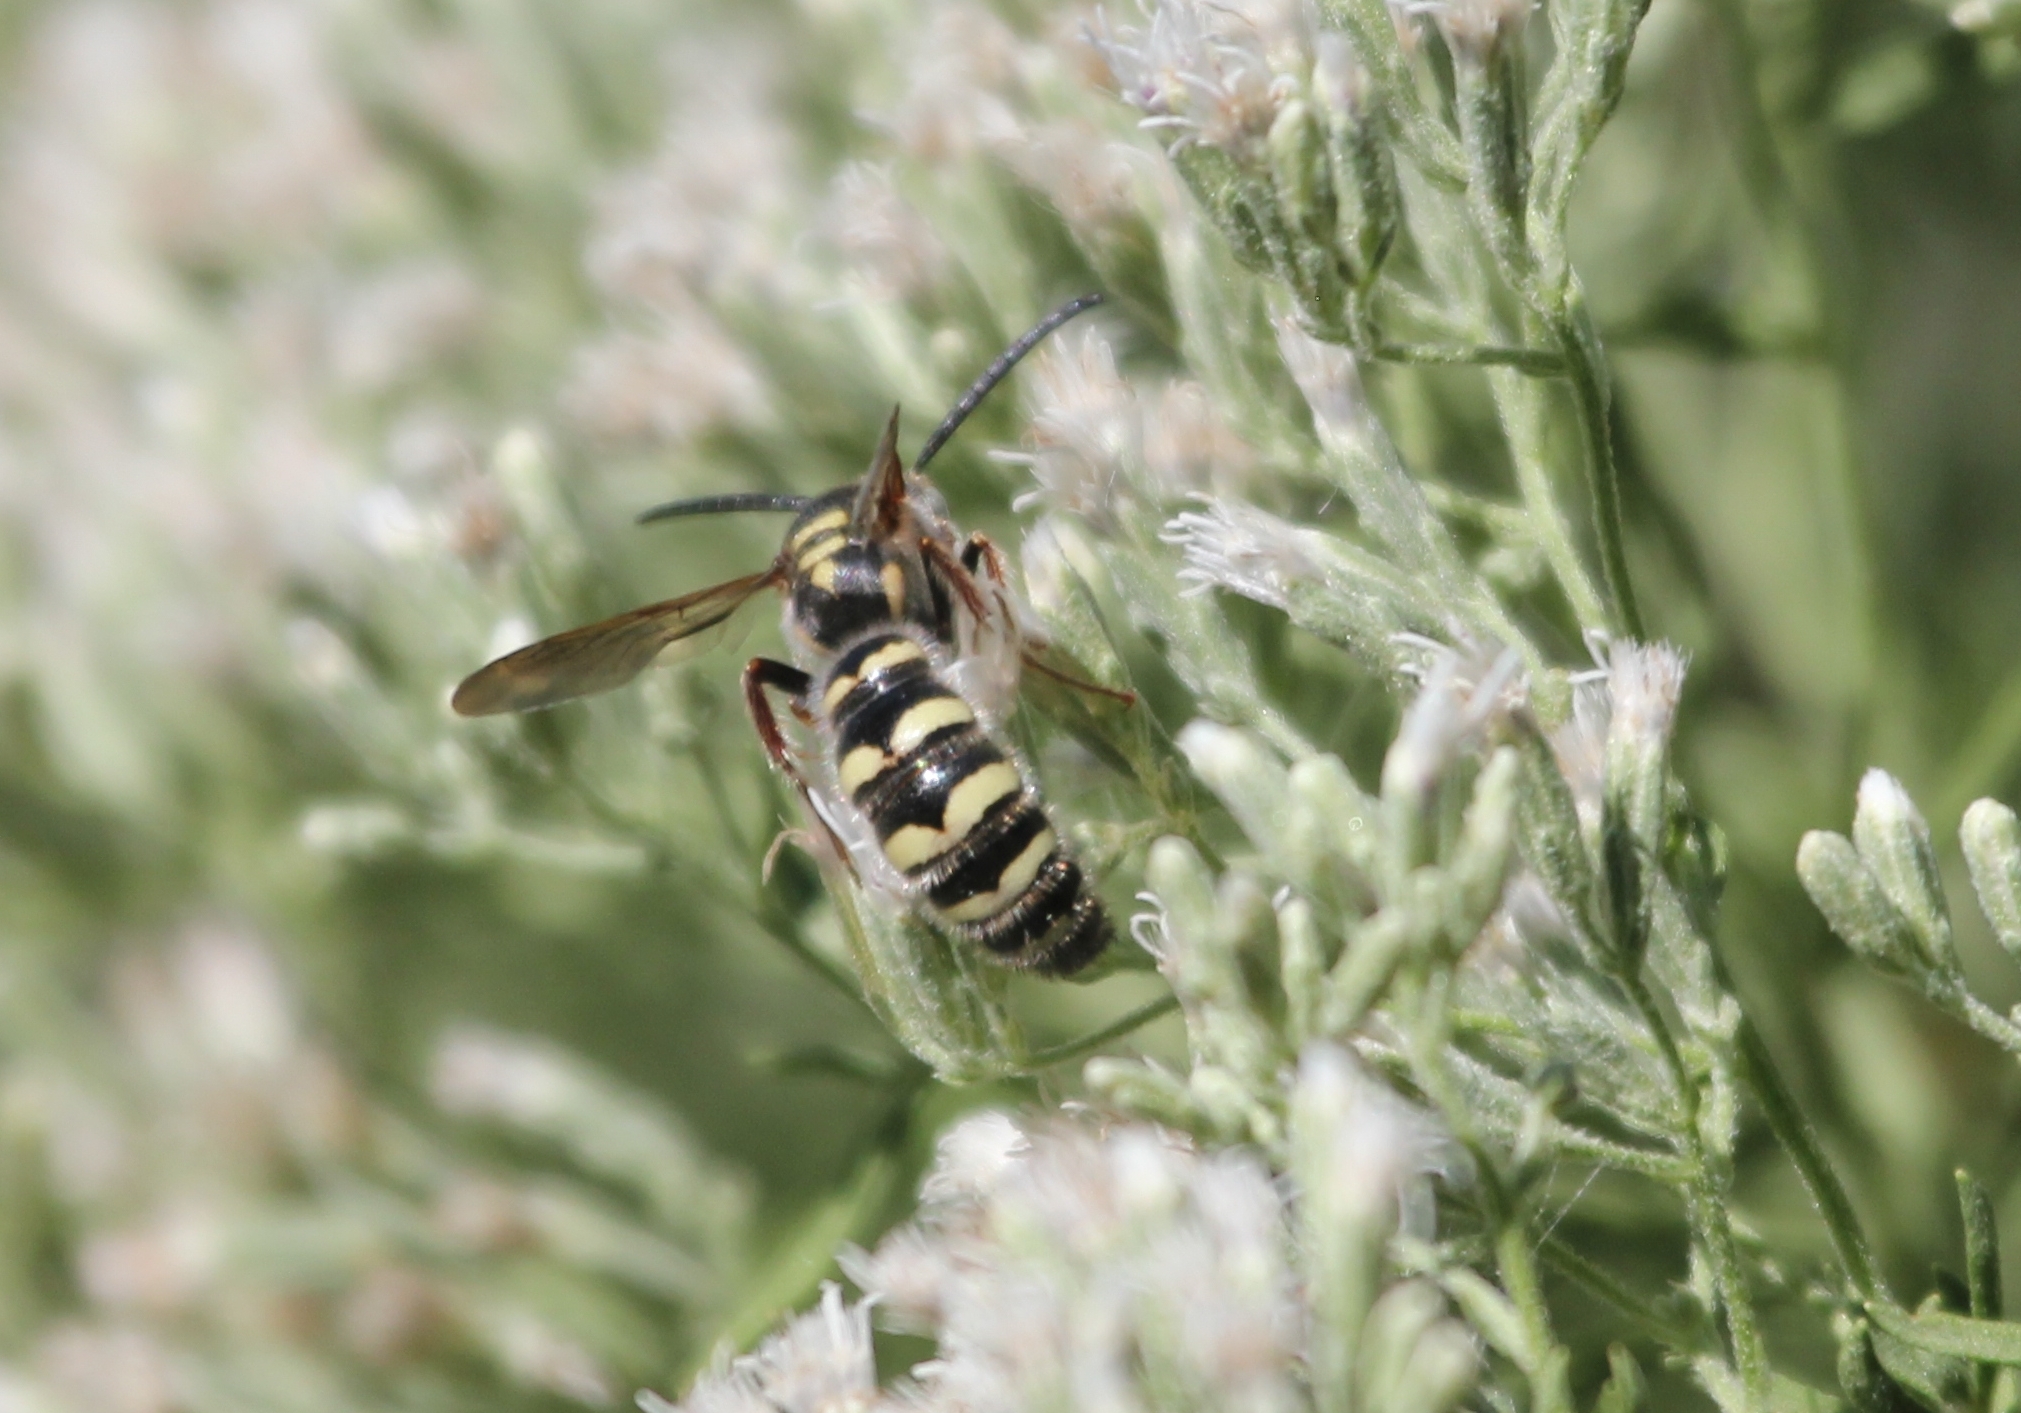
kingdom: Animalia
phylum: Arthropoda
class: Insecta
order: Hymenoptera
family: Scoliidae
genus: Colpa
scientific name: Colpa octomaculata
